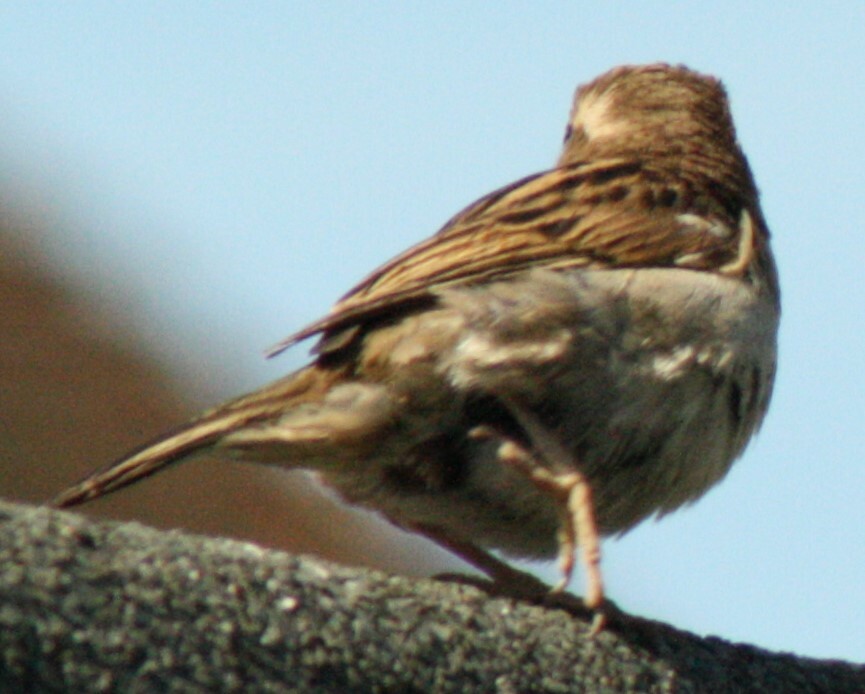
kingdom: Animalia
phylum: Chordata
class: Aves
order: Passeriformes
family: Passeridae
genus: Passer
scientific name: Passer domesticus
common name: House sparrow
